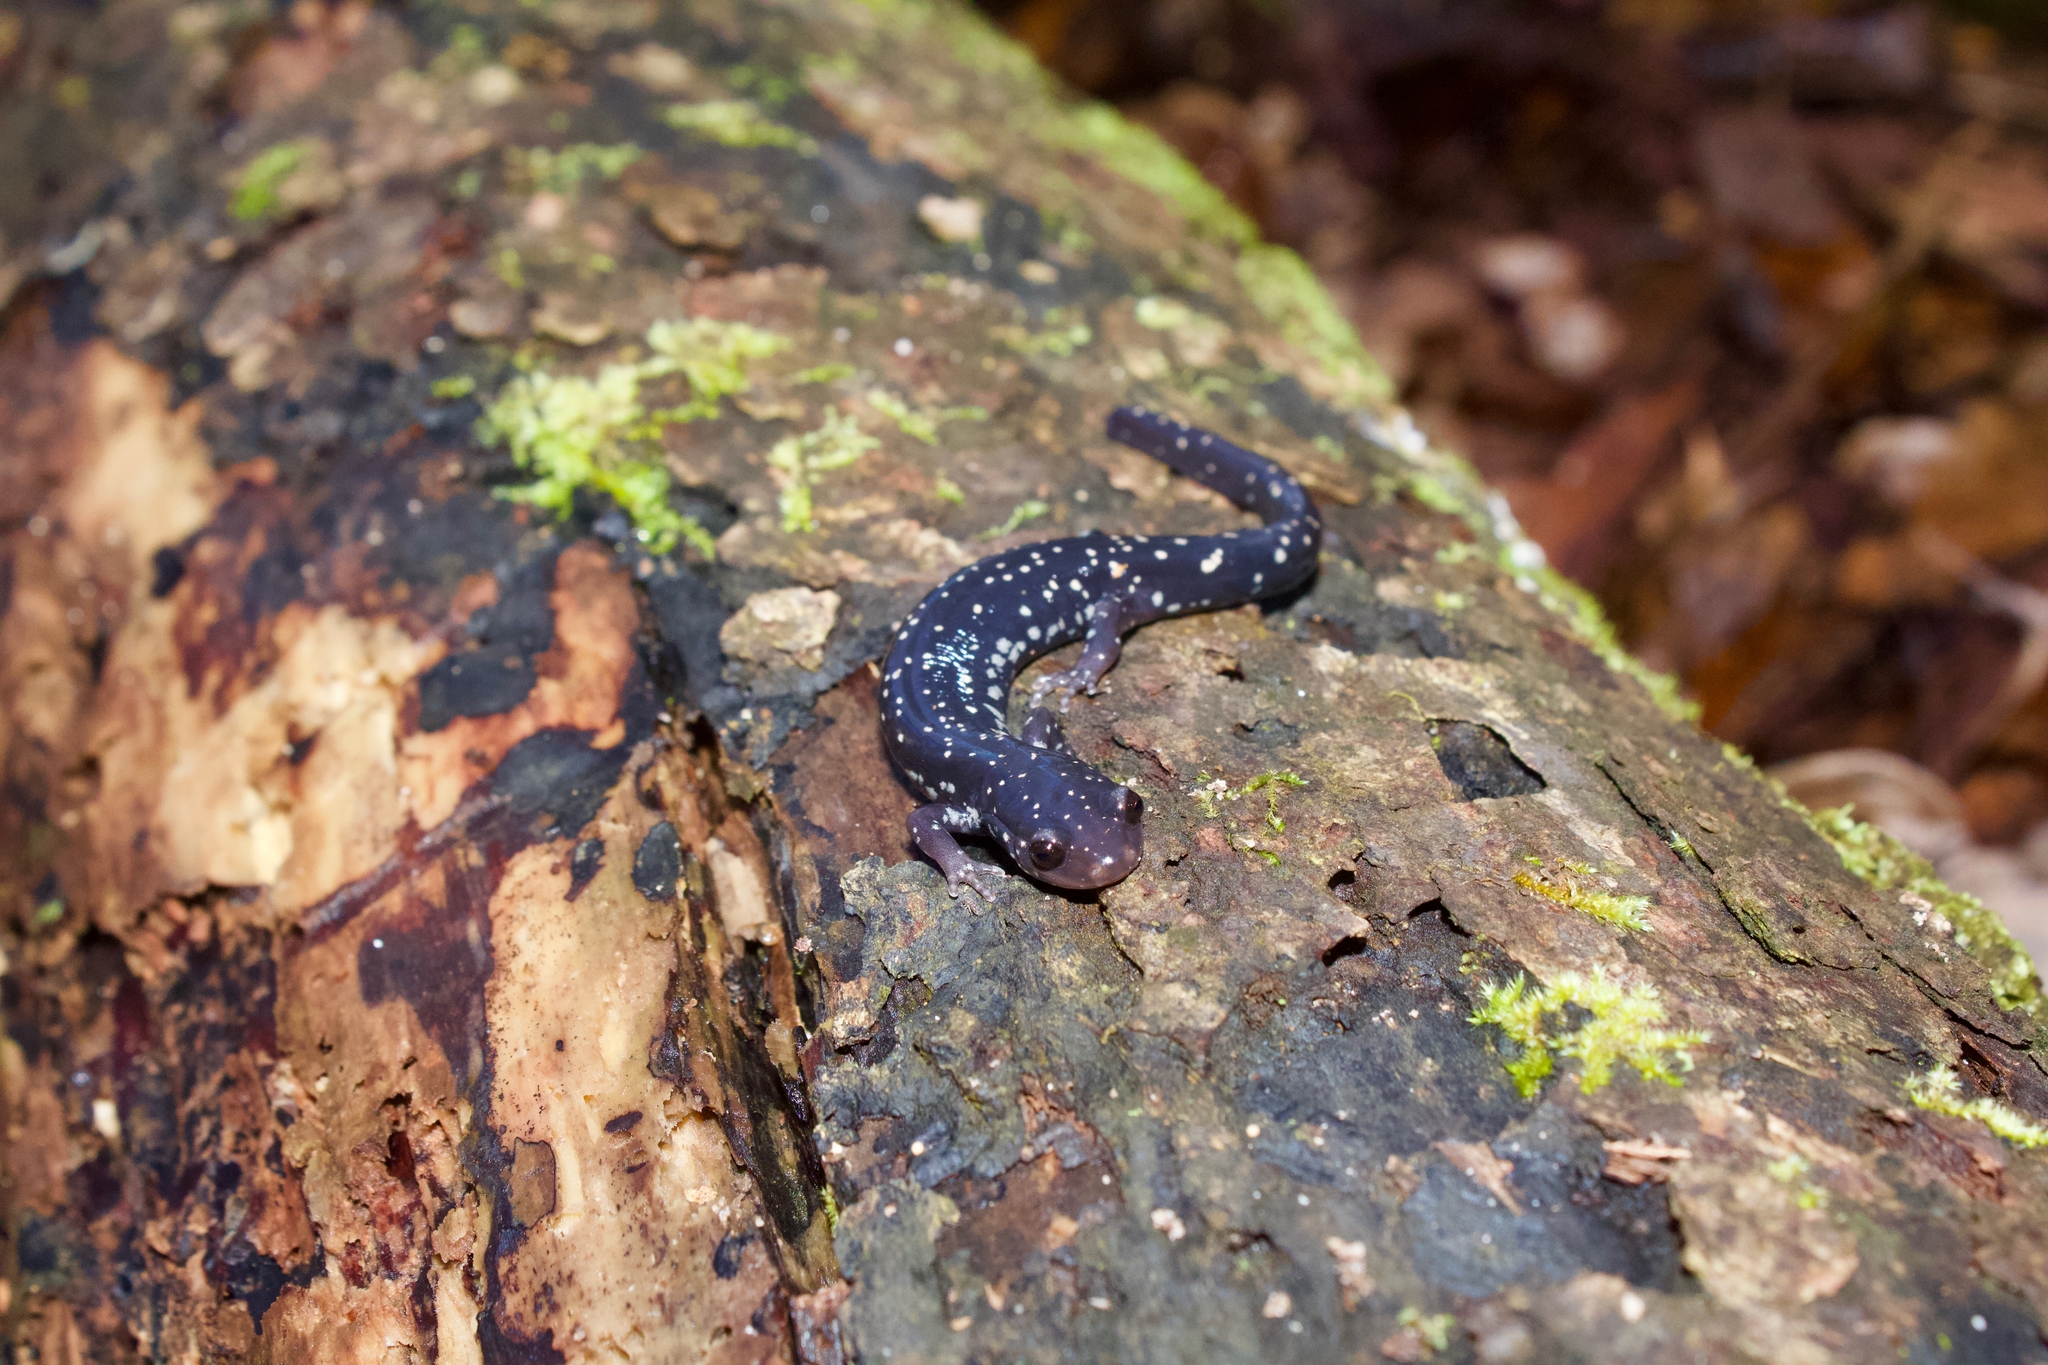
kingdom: Animalia
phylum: Chordata
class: Amphibia
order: Caudata
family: Plethodontidae
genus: Plethodon
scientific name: Plethodon mississippi
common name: Mississippi slimy salamander
